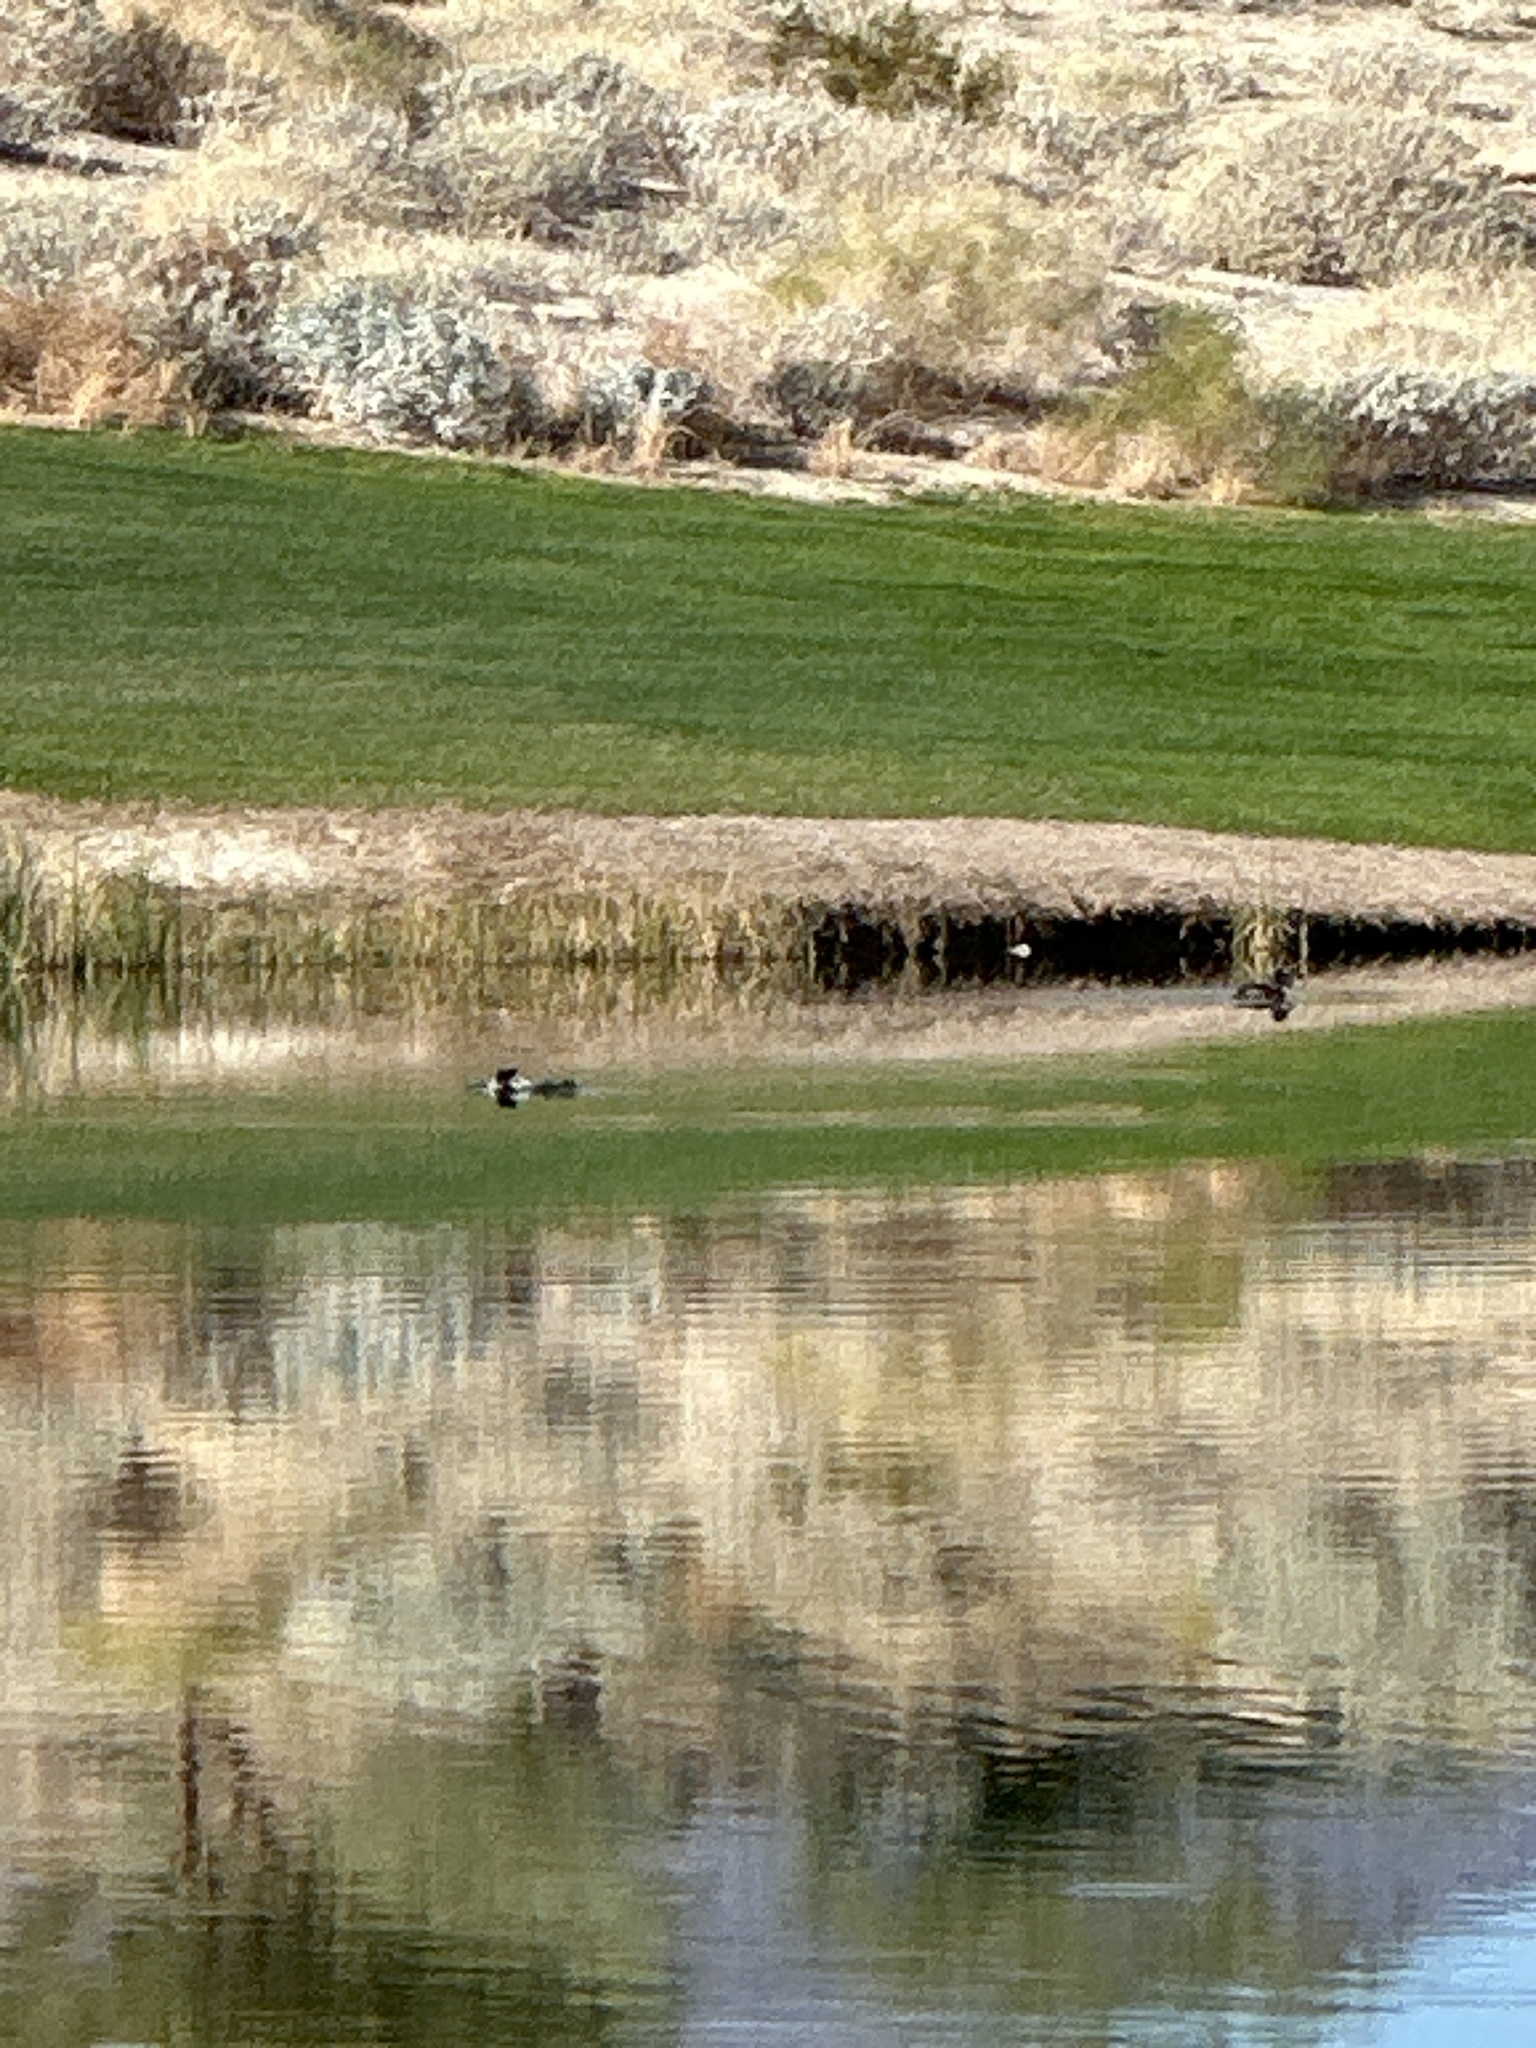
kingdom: Animalia
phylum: Chordata
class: Aves
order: Anseriformes
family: Anatidae
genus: Aythya
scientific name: Aythya collaris
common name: Ring-necked duck
